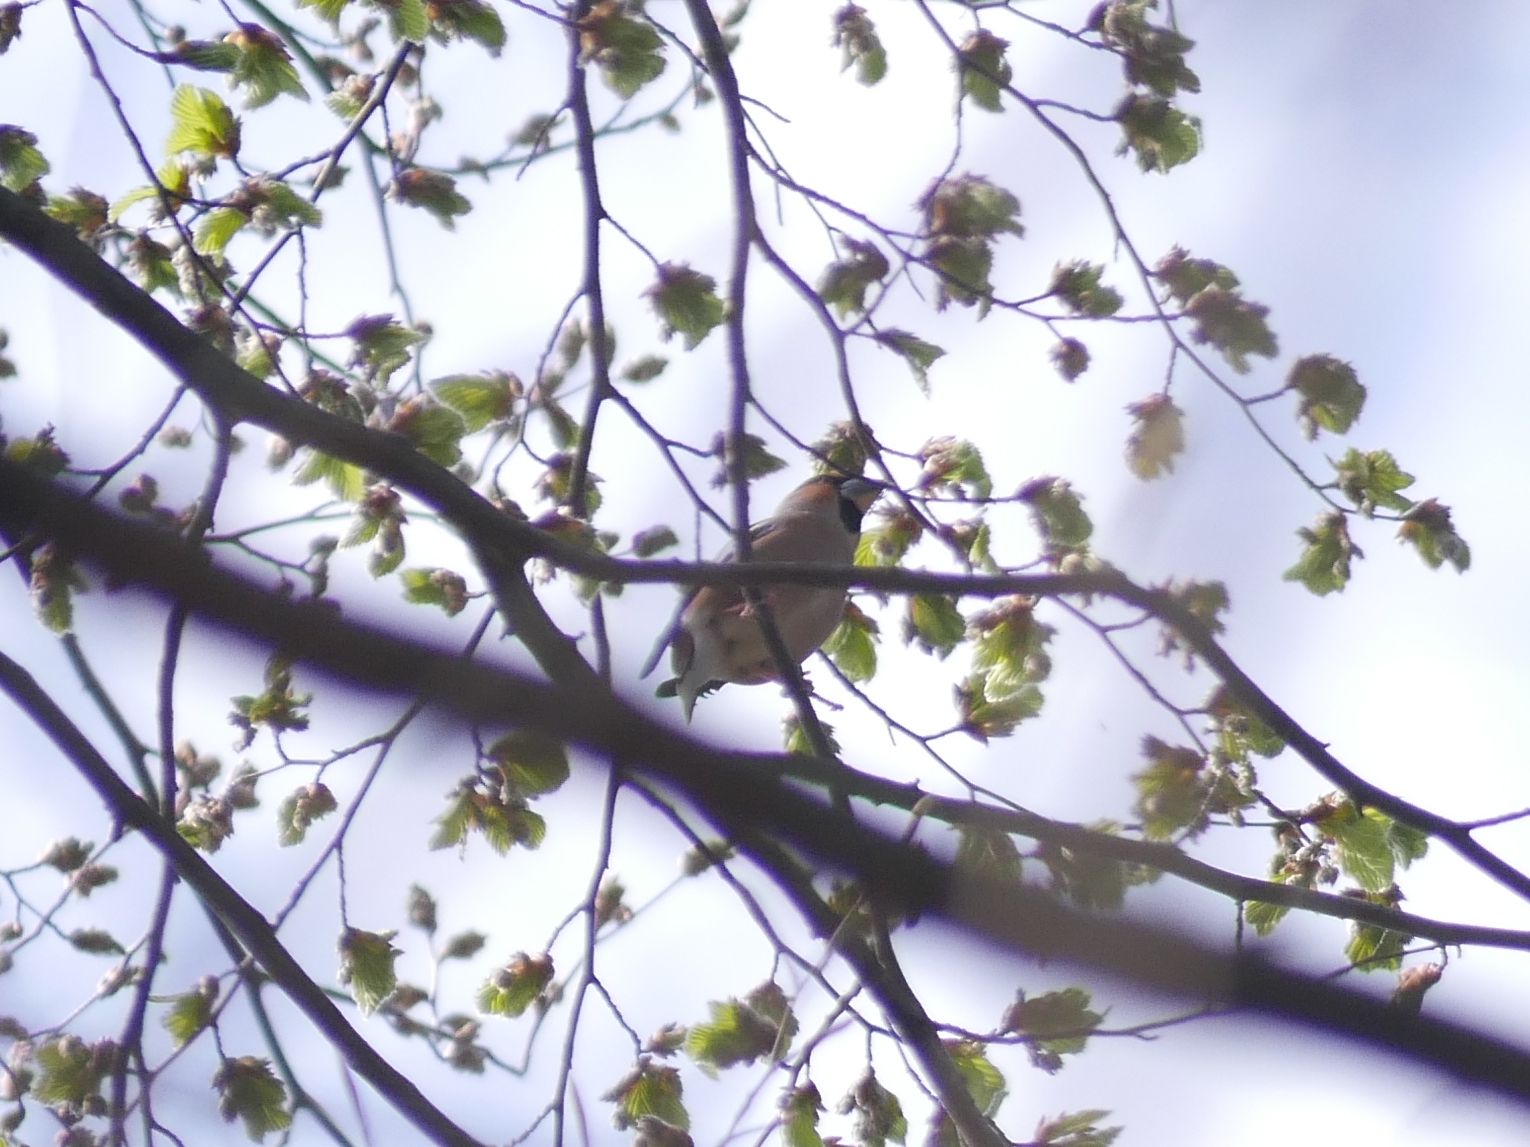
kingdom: Animalia
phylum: Chordata
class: Aves
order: Passeriformes
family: Fringillidae
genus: Coccothraustes
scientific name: Coccothraustes coccothraustes
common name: Hawfinch
